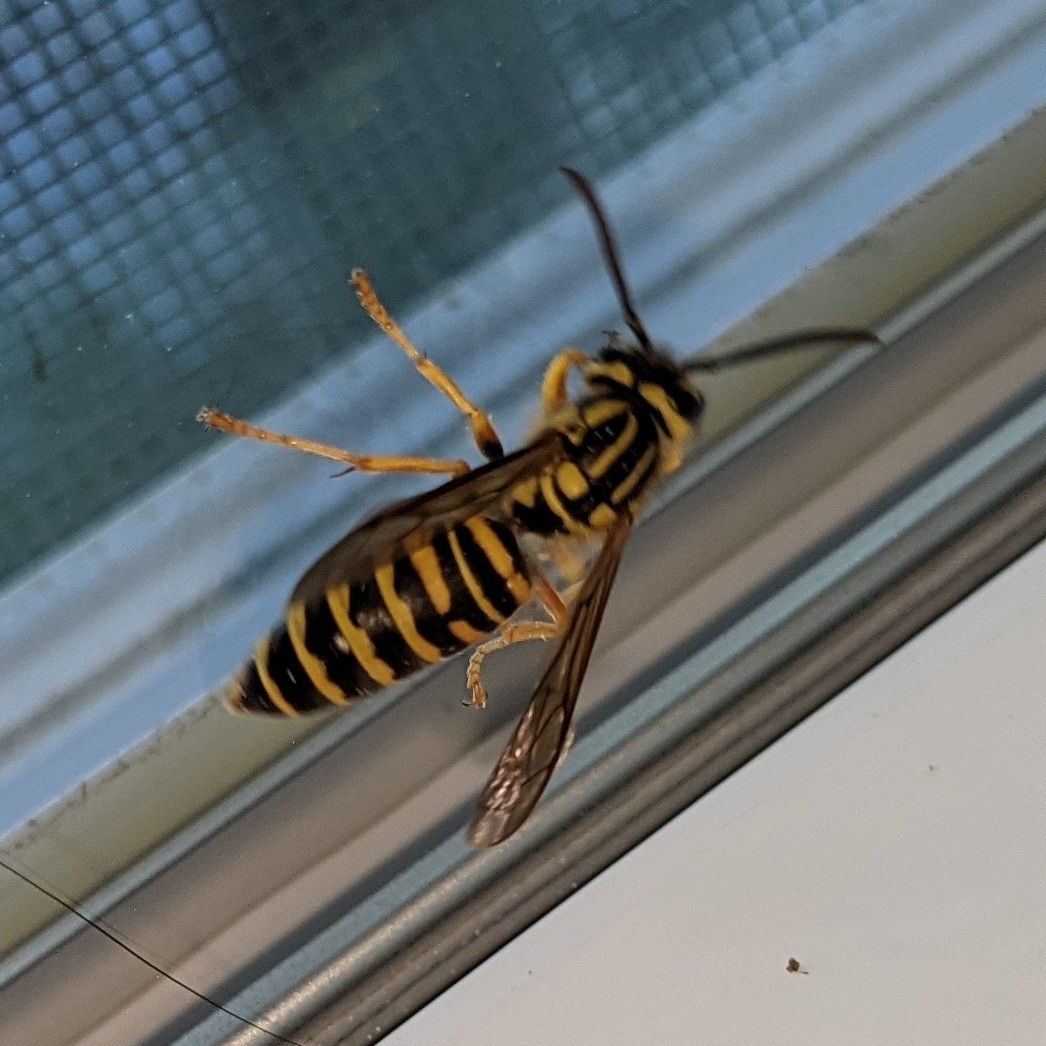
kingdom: Animalia
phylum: Arthropoda
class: Insecta
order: Hymenoptera
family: Vespidae
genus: Vespula
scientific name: Vespula squamosa
